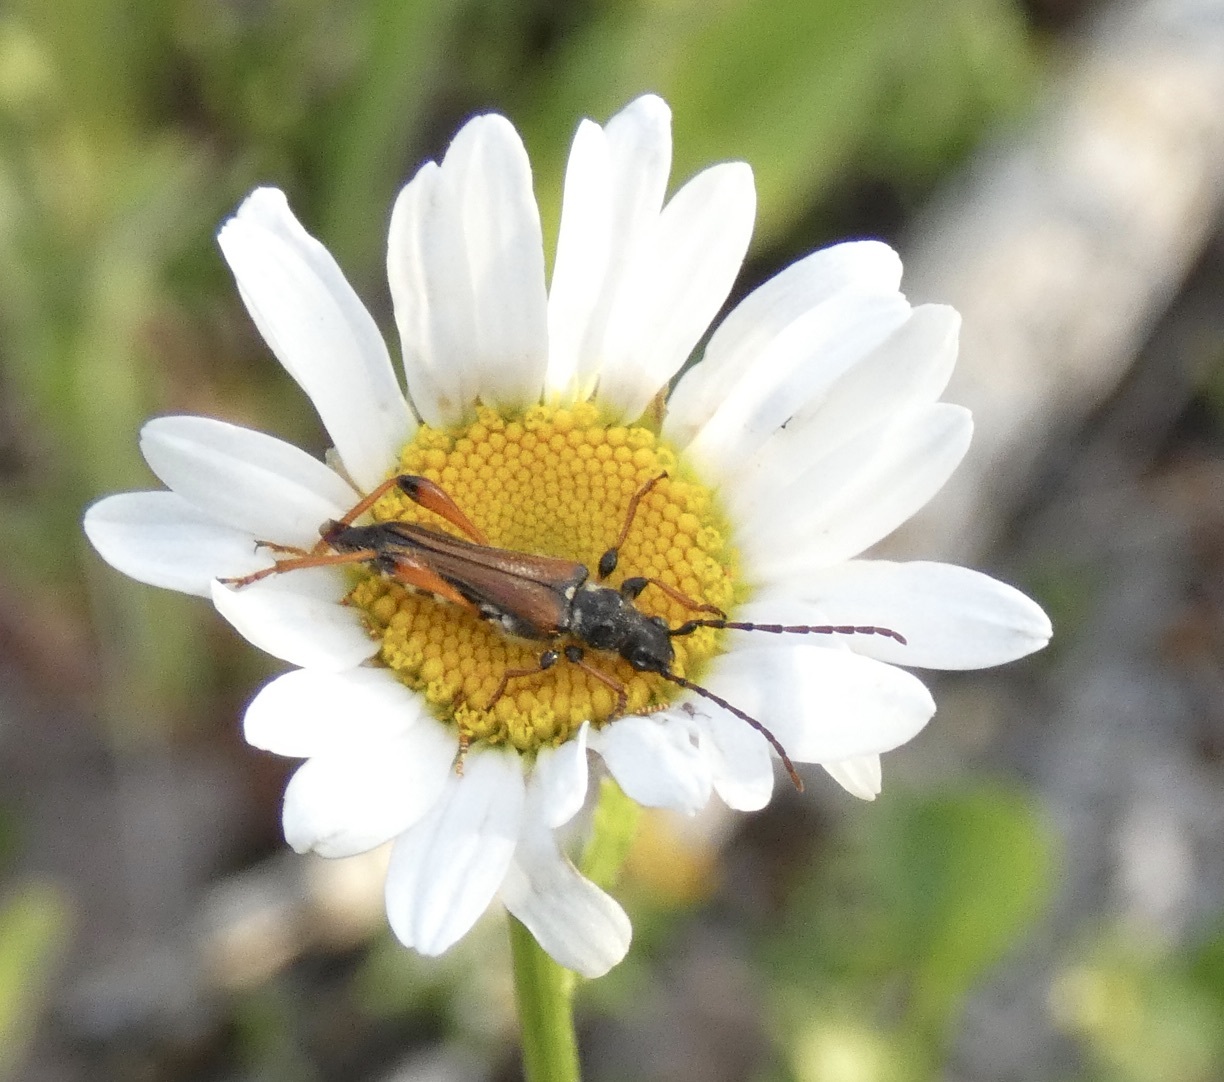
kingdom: Animalia
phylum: Arthropoda
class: Insecta
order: Coleoptera
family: Cerambycidae
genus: Stenopterus
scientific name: Stenopterus rufus
